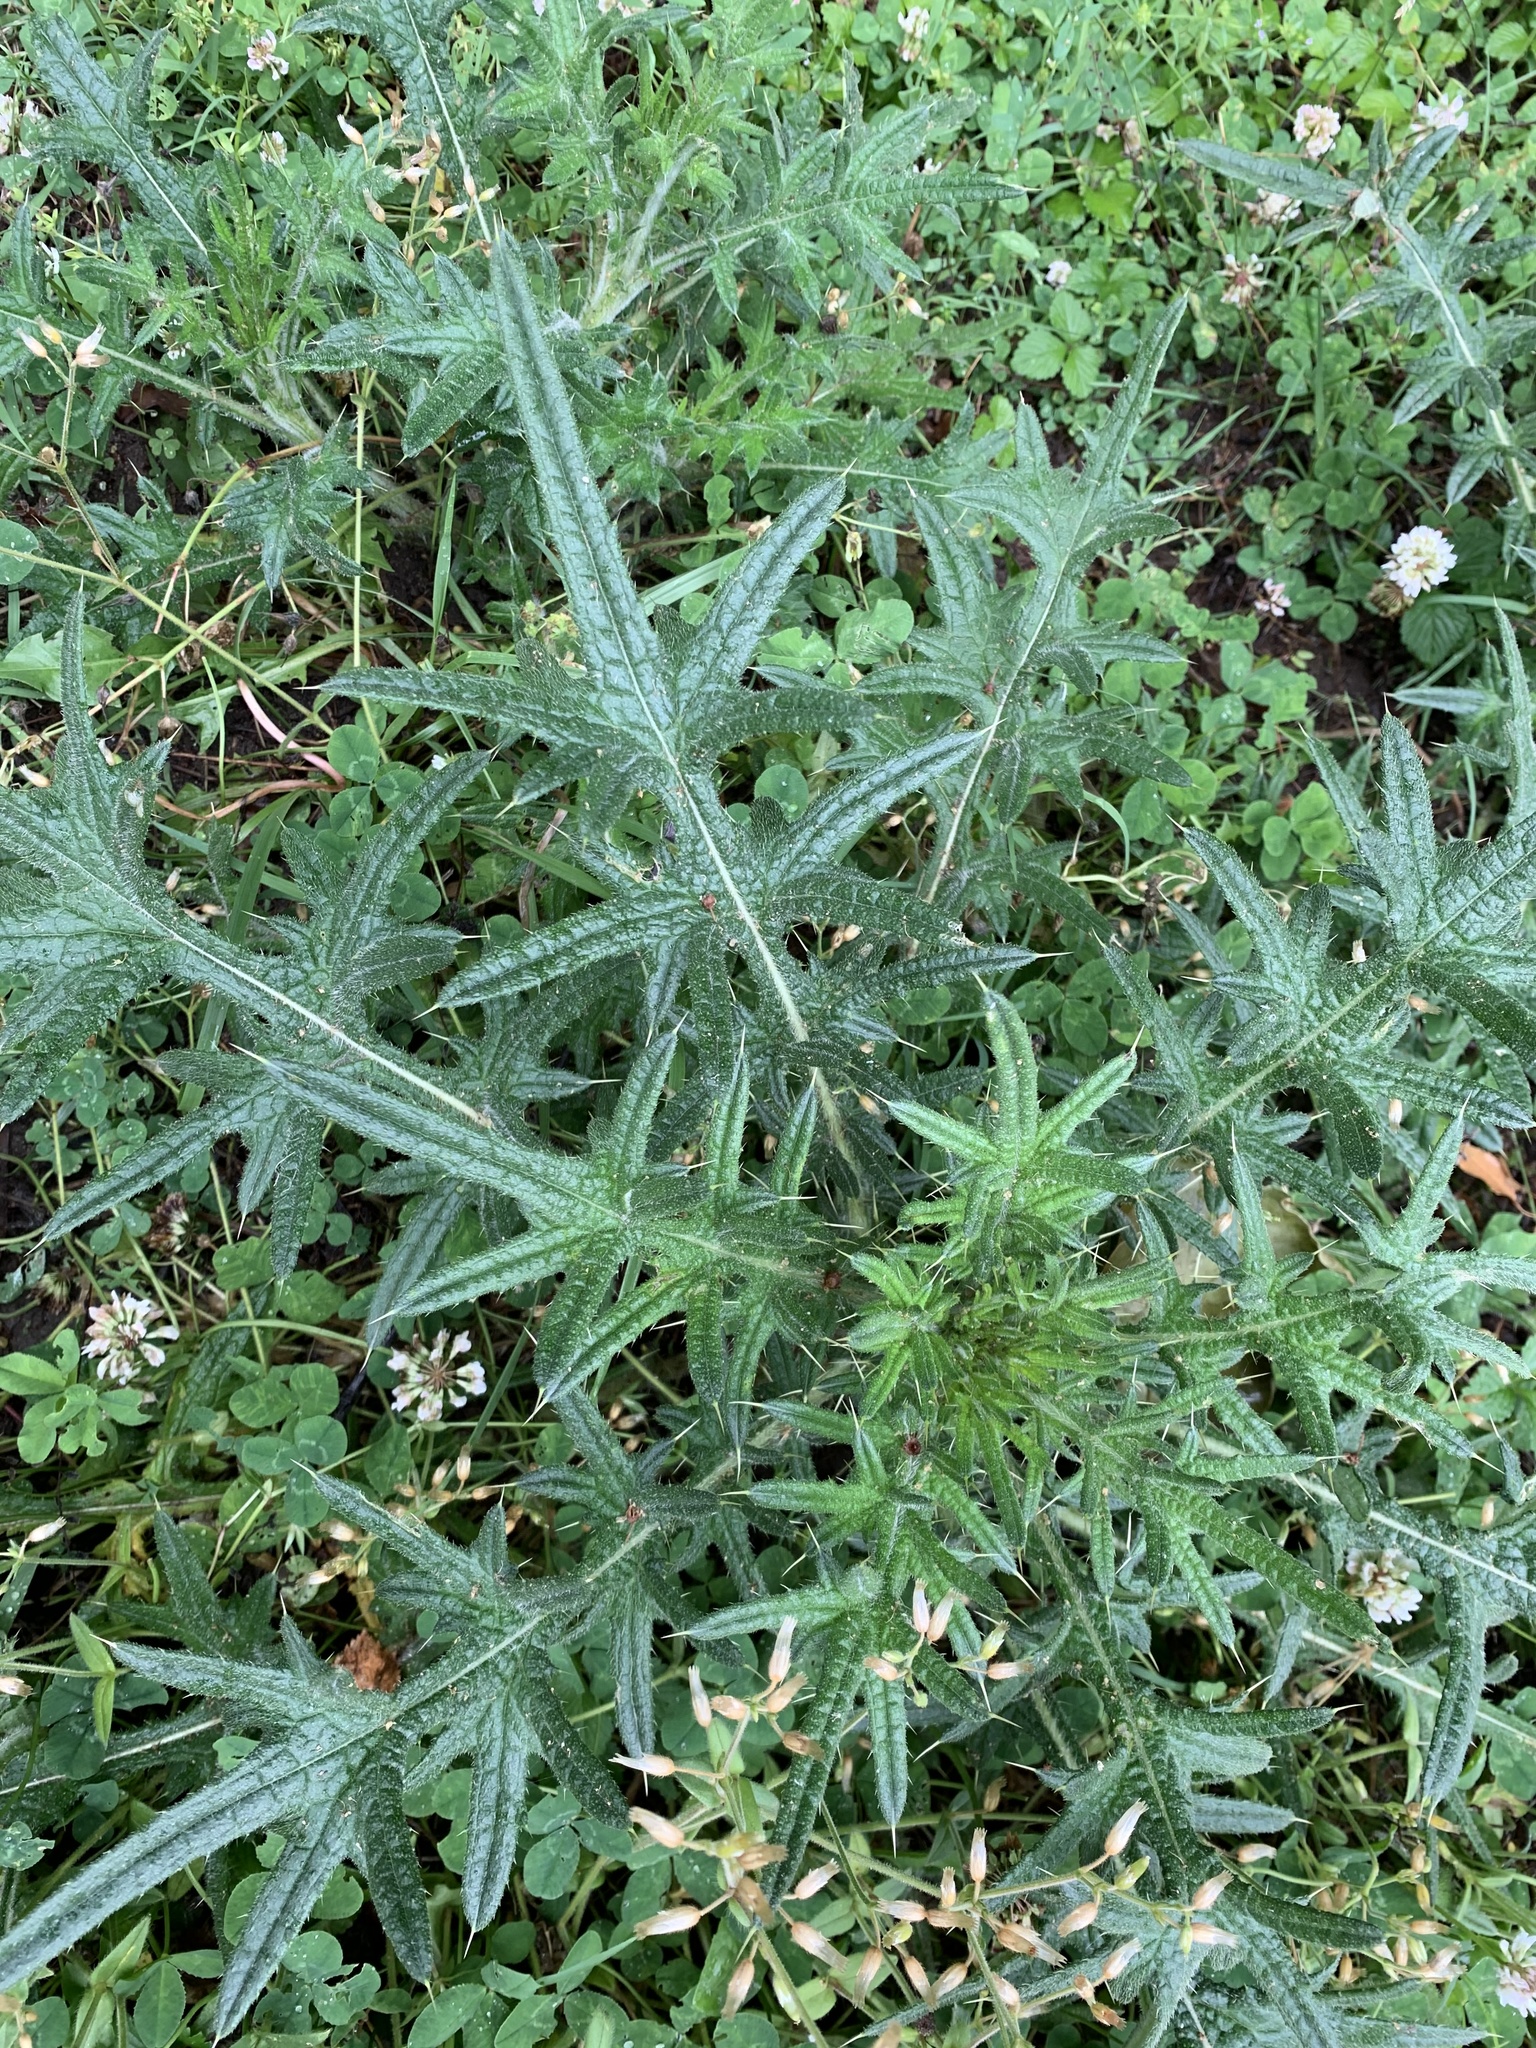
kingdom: Plantae
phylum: Tracheophyta
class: Magnoliopsida
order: Asterales
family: Asteraceae
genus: Cirsium
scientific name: Cirsium vulgare
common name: Bull thistle
